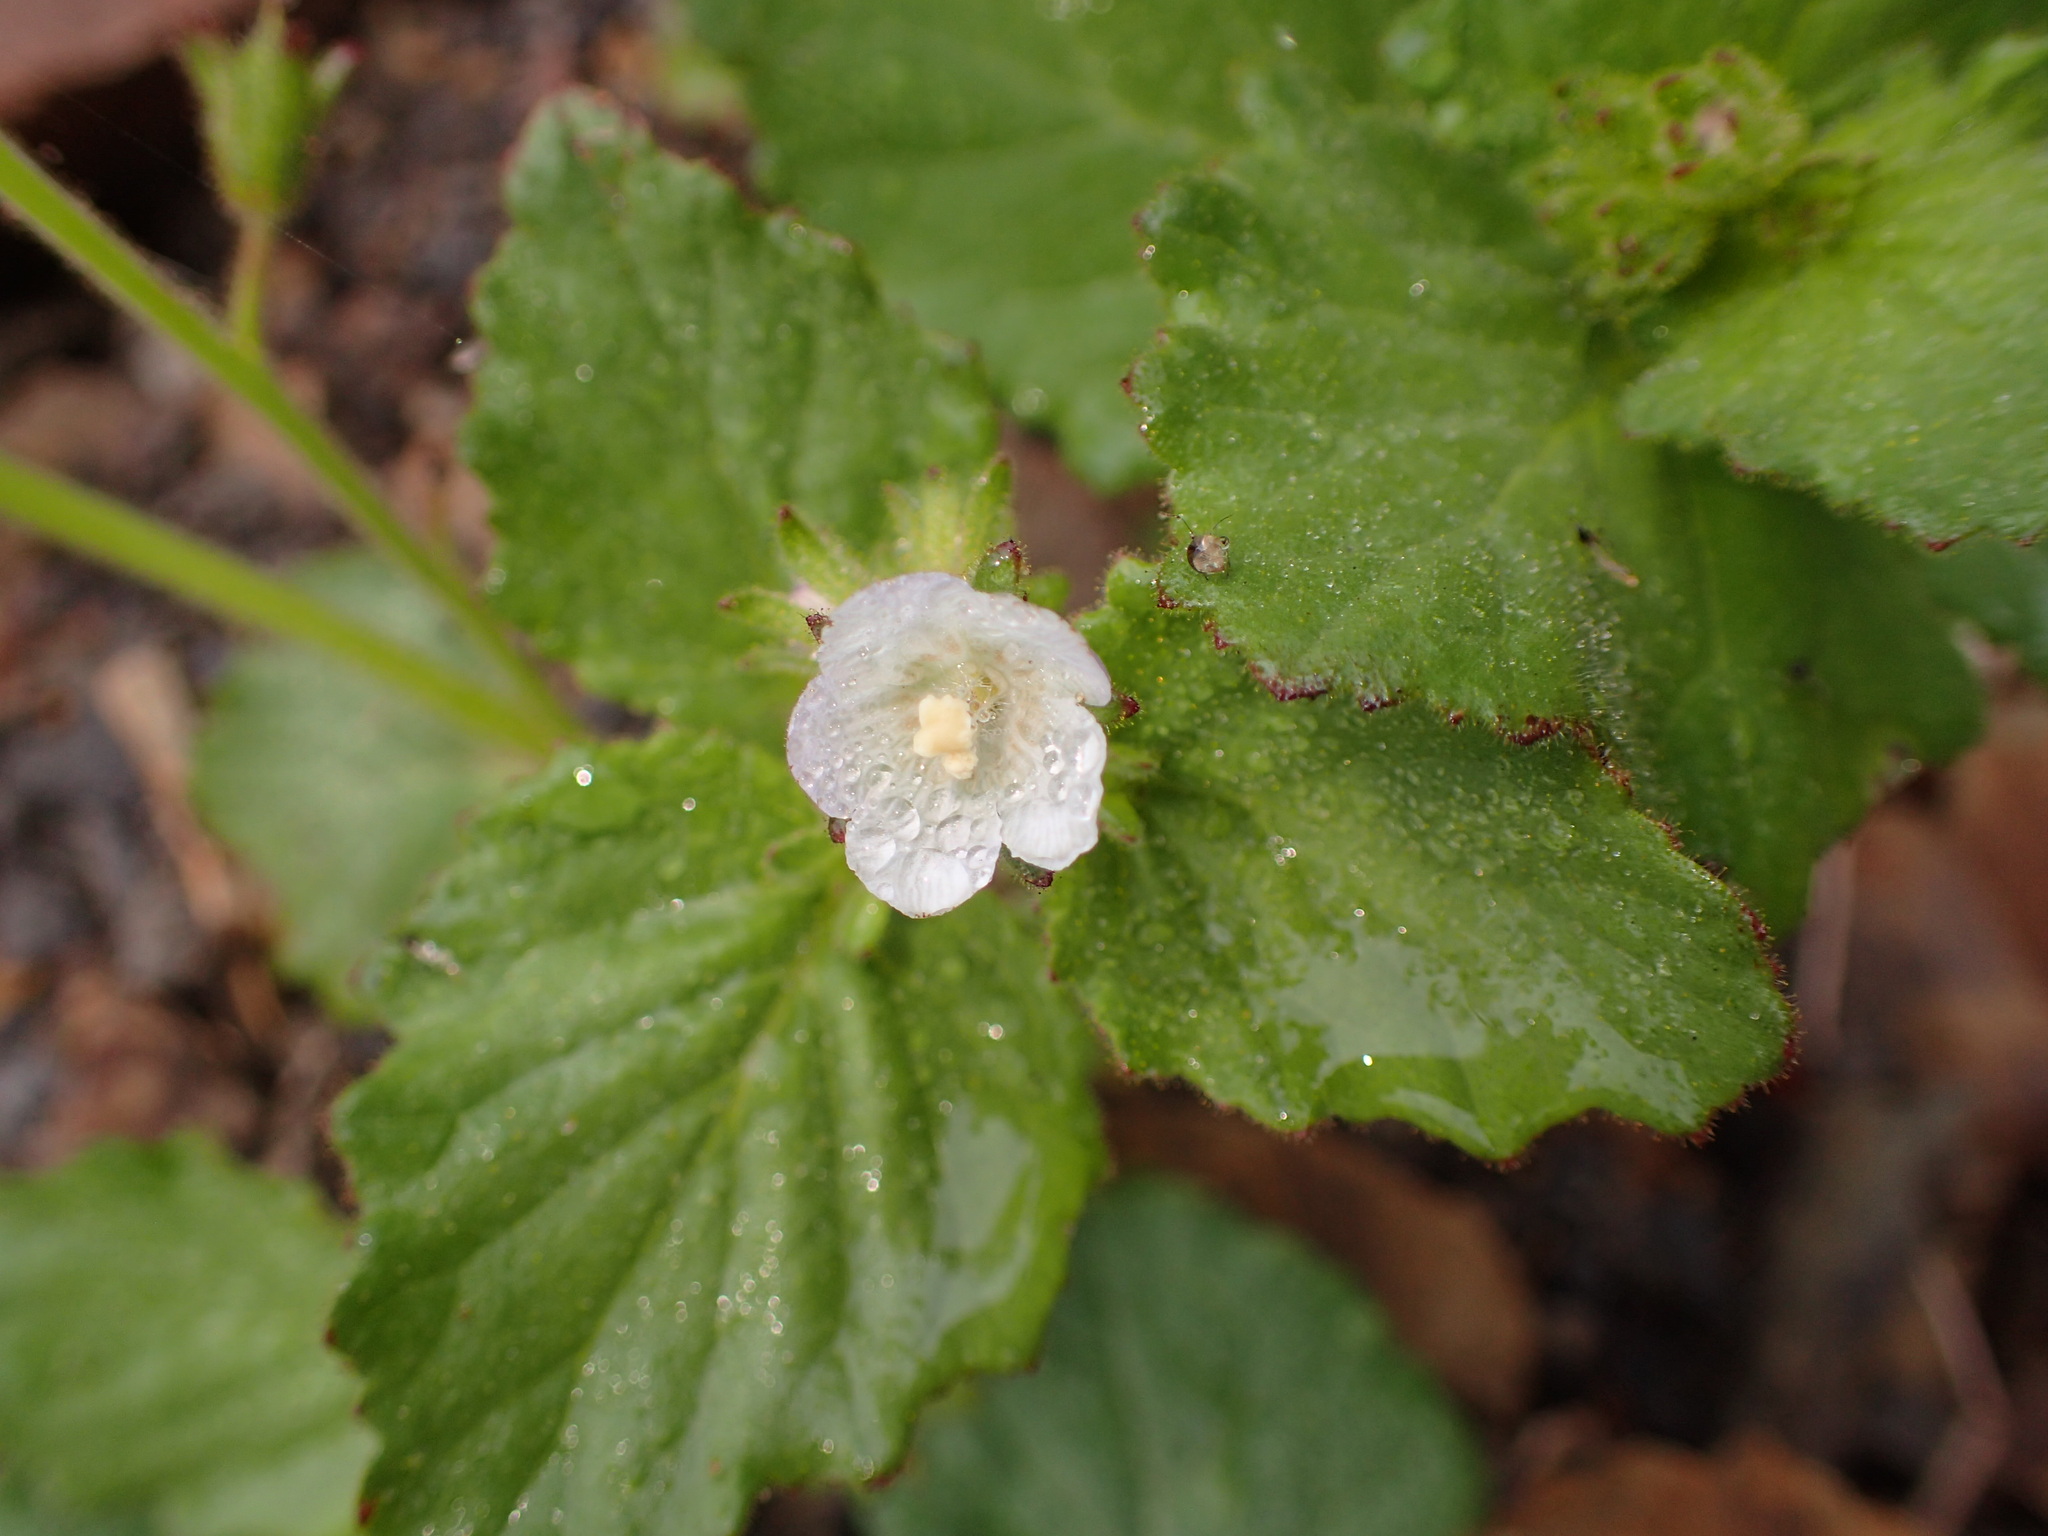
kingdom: Plantae
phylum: Tracheophyta
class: Magnoliopsida
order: Boraginales
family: Hydrophyllaceae
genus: Phacelia
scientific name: Phacelia viscida
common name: Sticky phacelia
